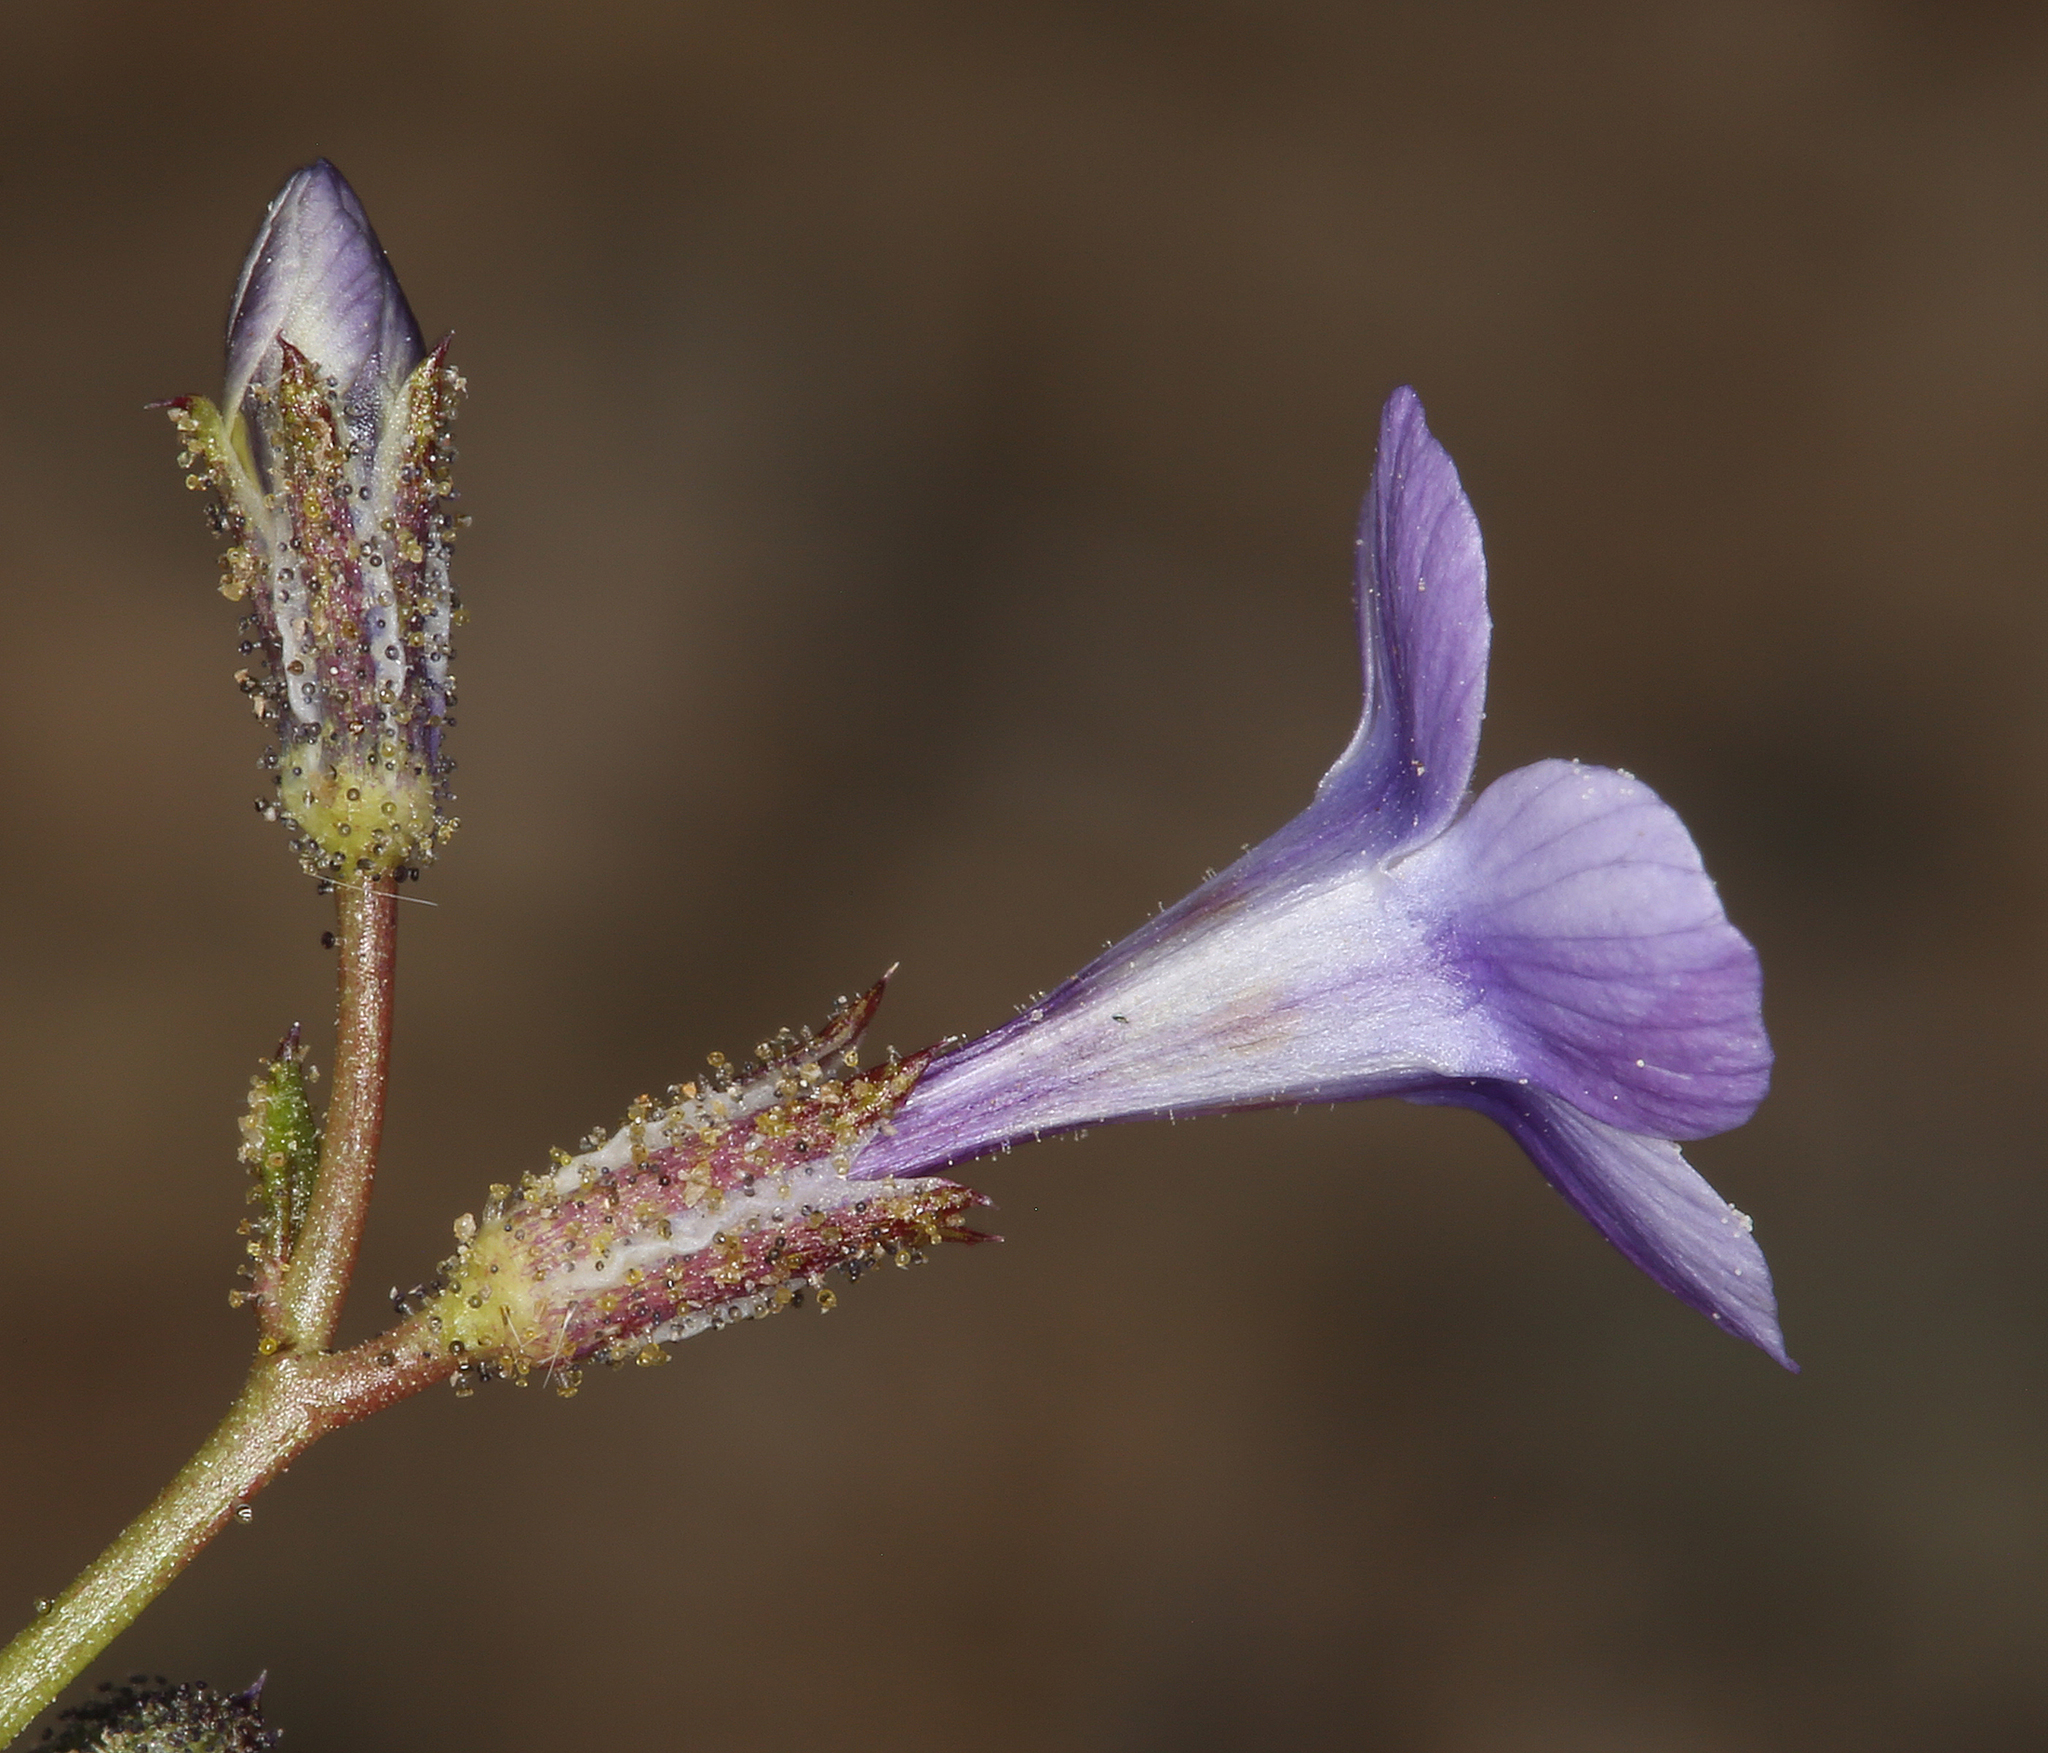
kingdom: Plantae
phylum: Tracheophyta
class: Magnoliopsida
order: Ericales
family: Polemoniaceae
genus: Gilia
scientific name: Gilia sinuata
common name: Rosy gilia
